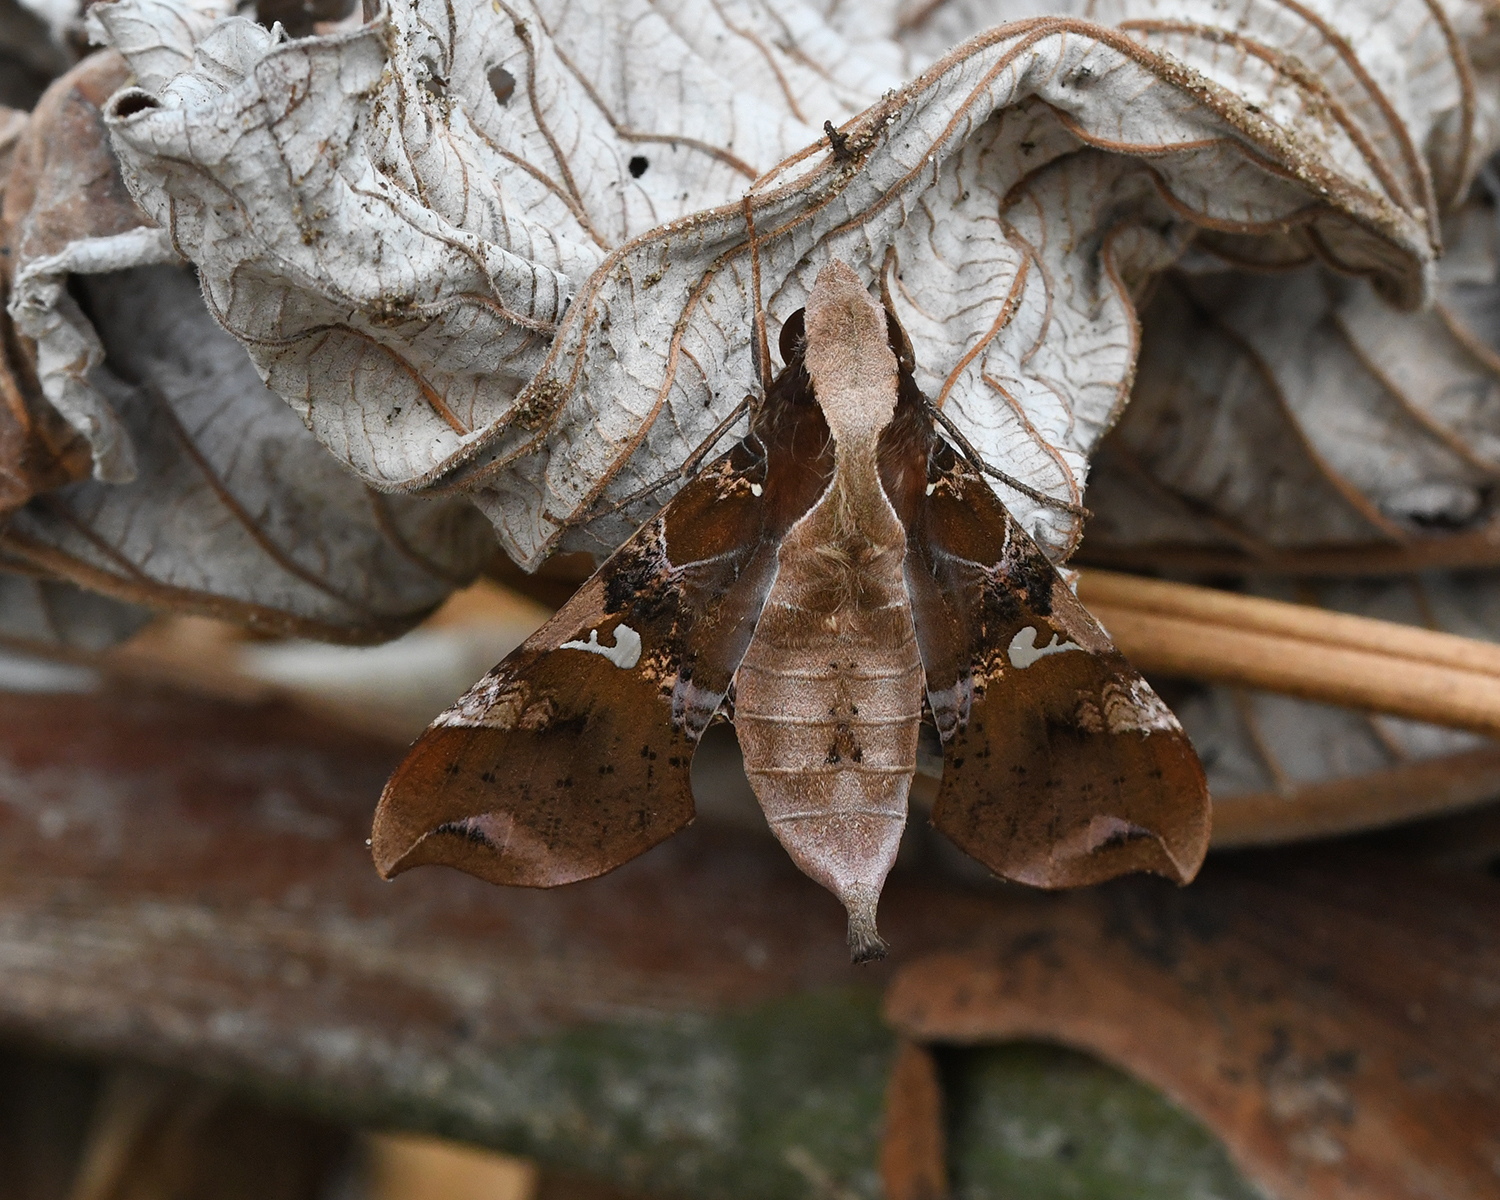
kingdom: Animalia
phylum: Arthropoda
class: Insecta
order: Lepidoptera
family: Sphingidae
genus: Callionima
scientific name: Callionima falcifera
